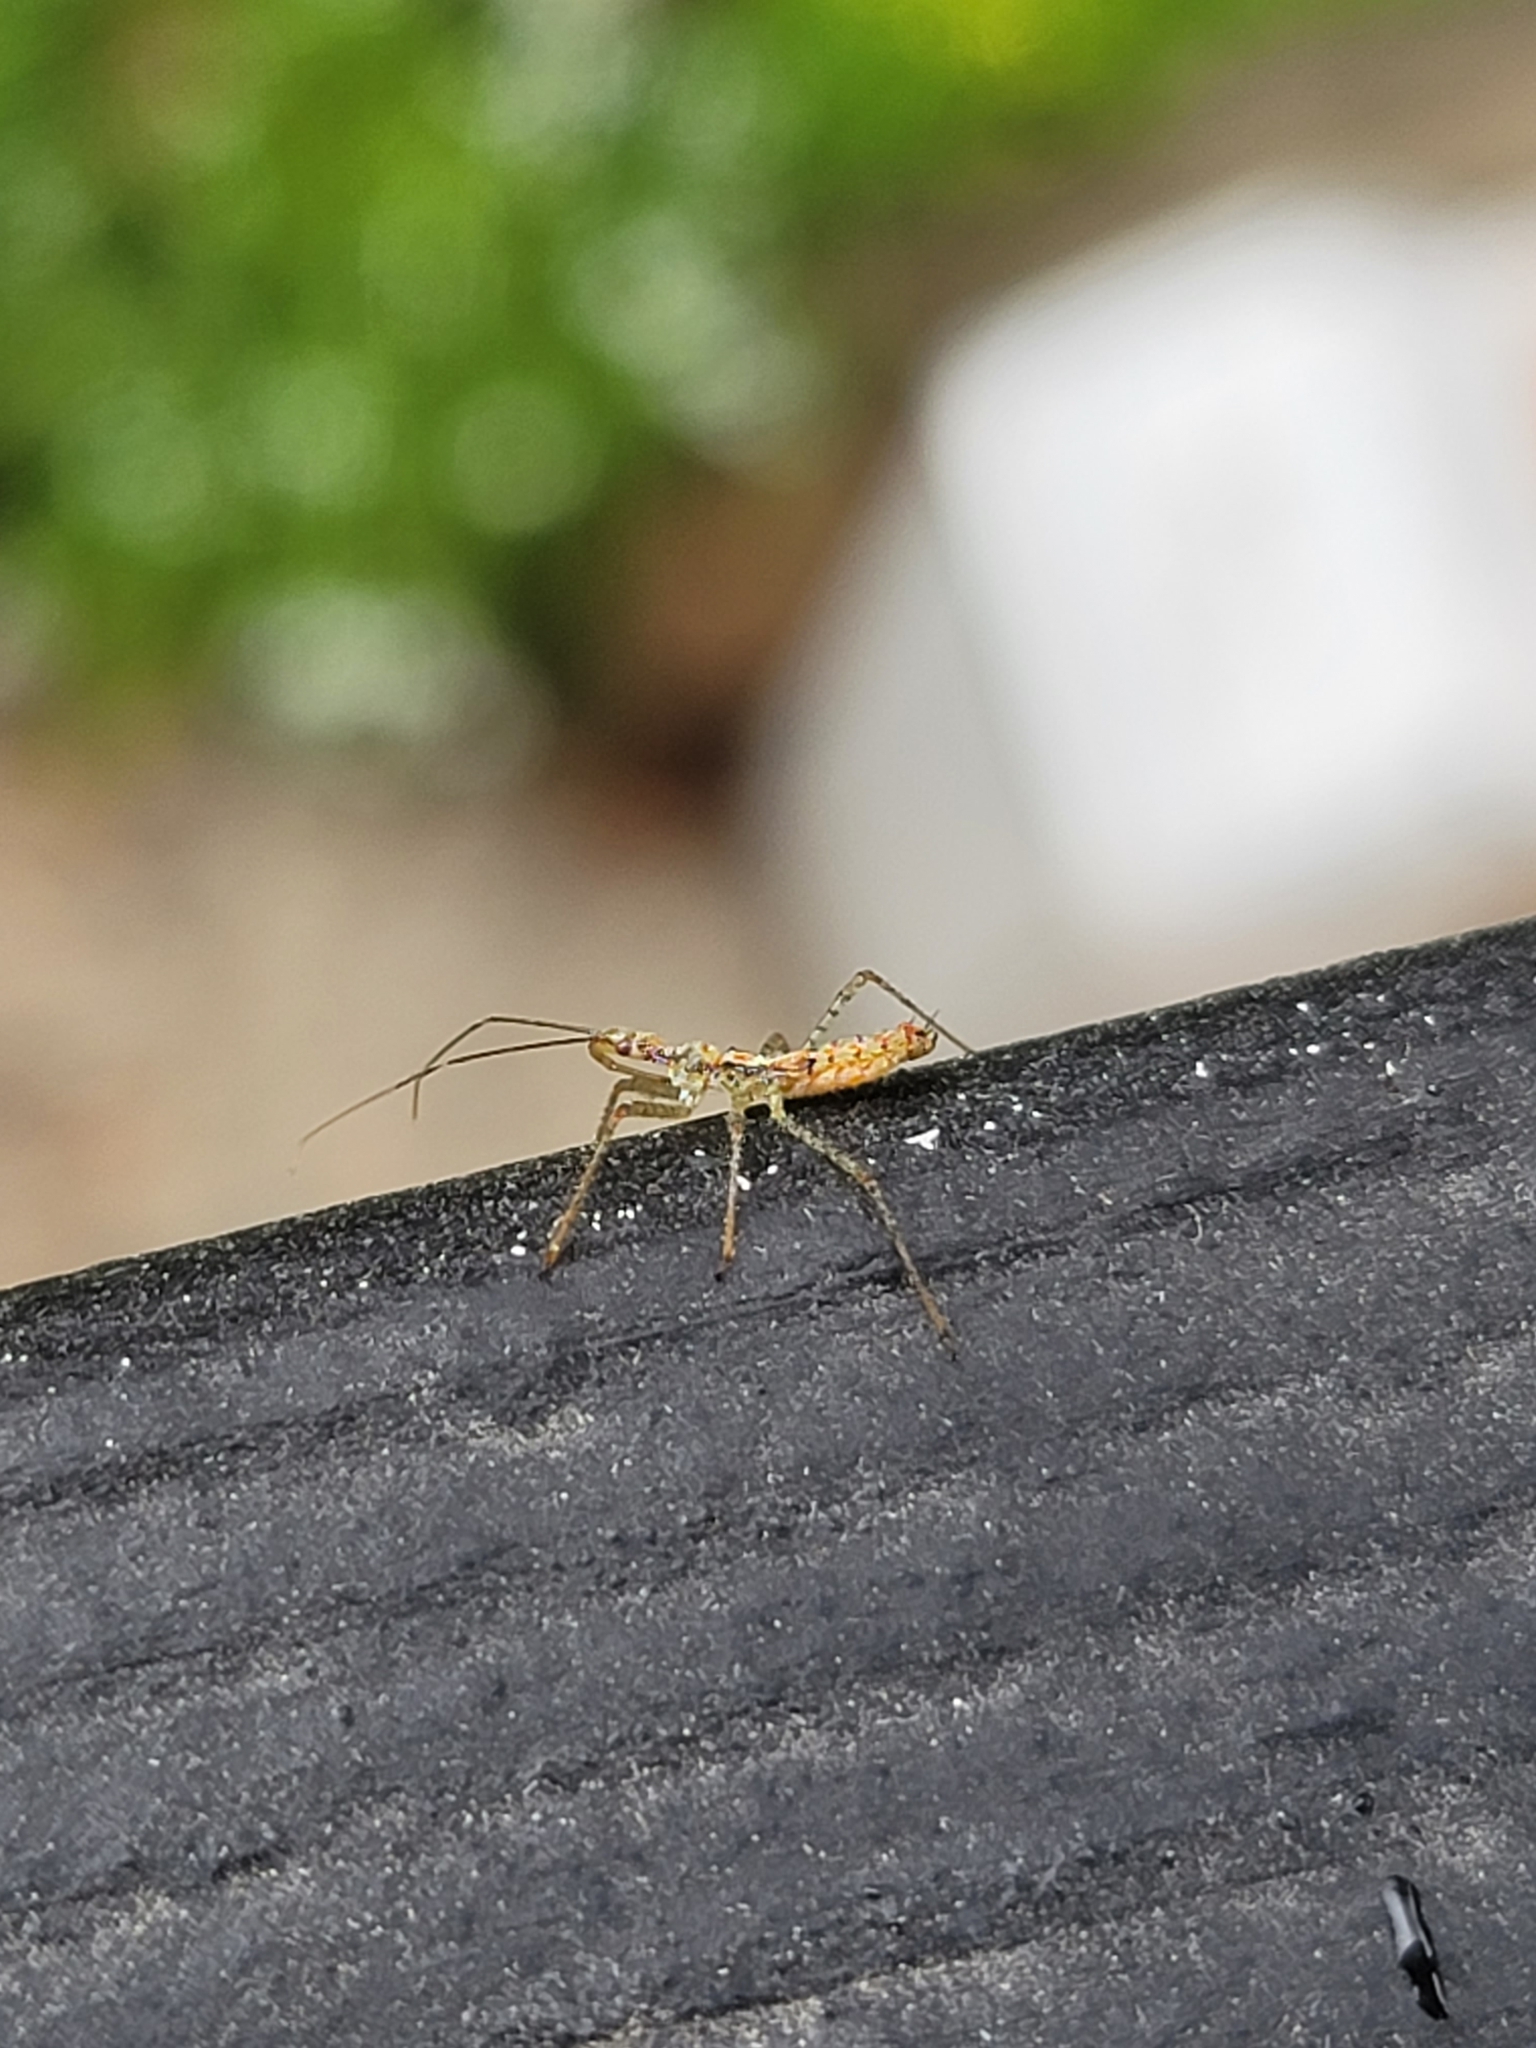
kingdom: Animalia
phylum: Arthropoda
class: Insecta
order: Hemiptera
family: Reduviidae
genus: Zelus
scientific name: Zelus renardii
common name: Assassin bug
